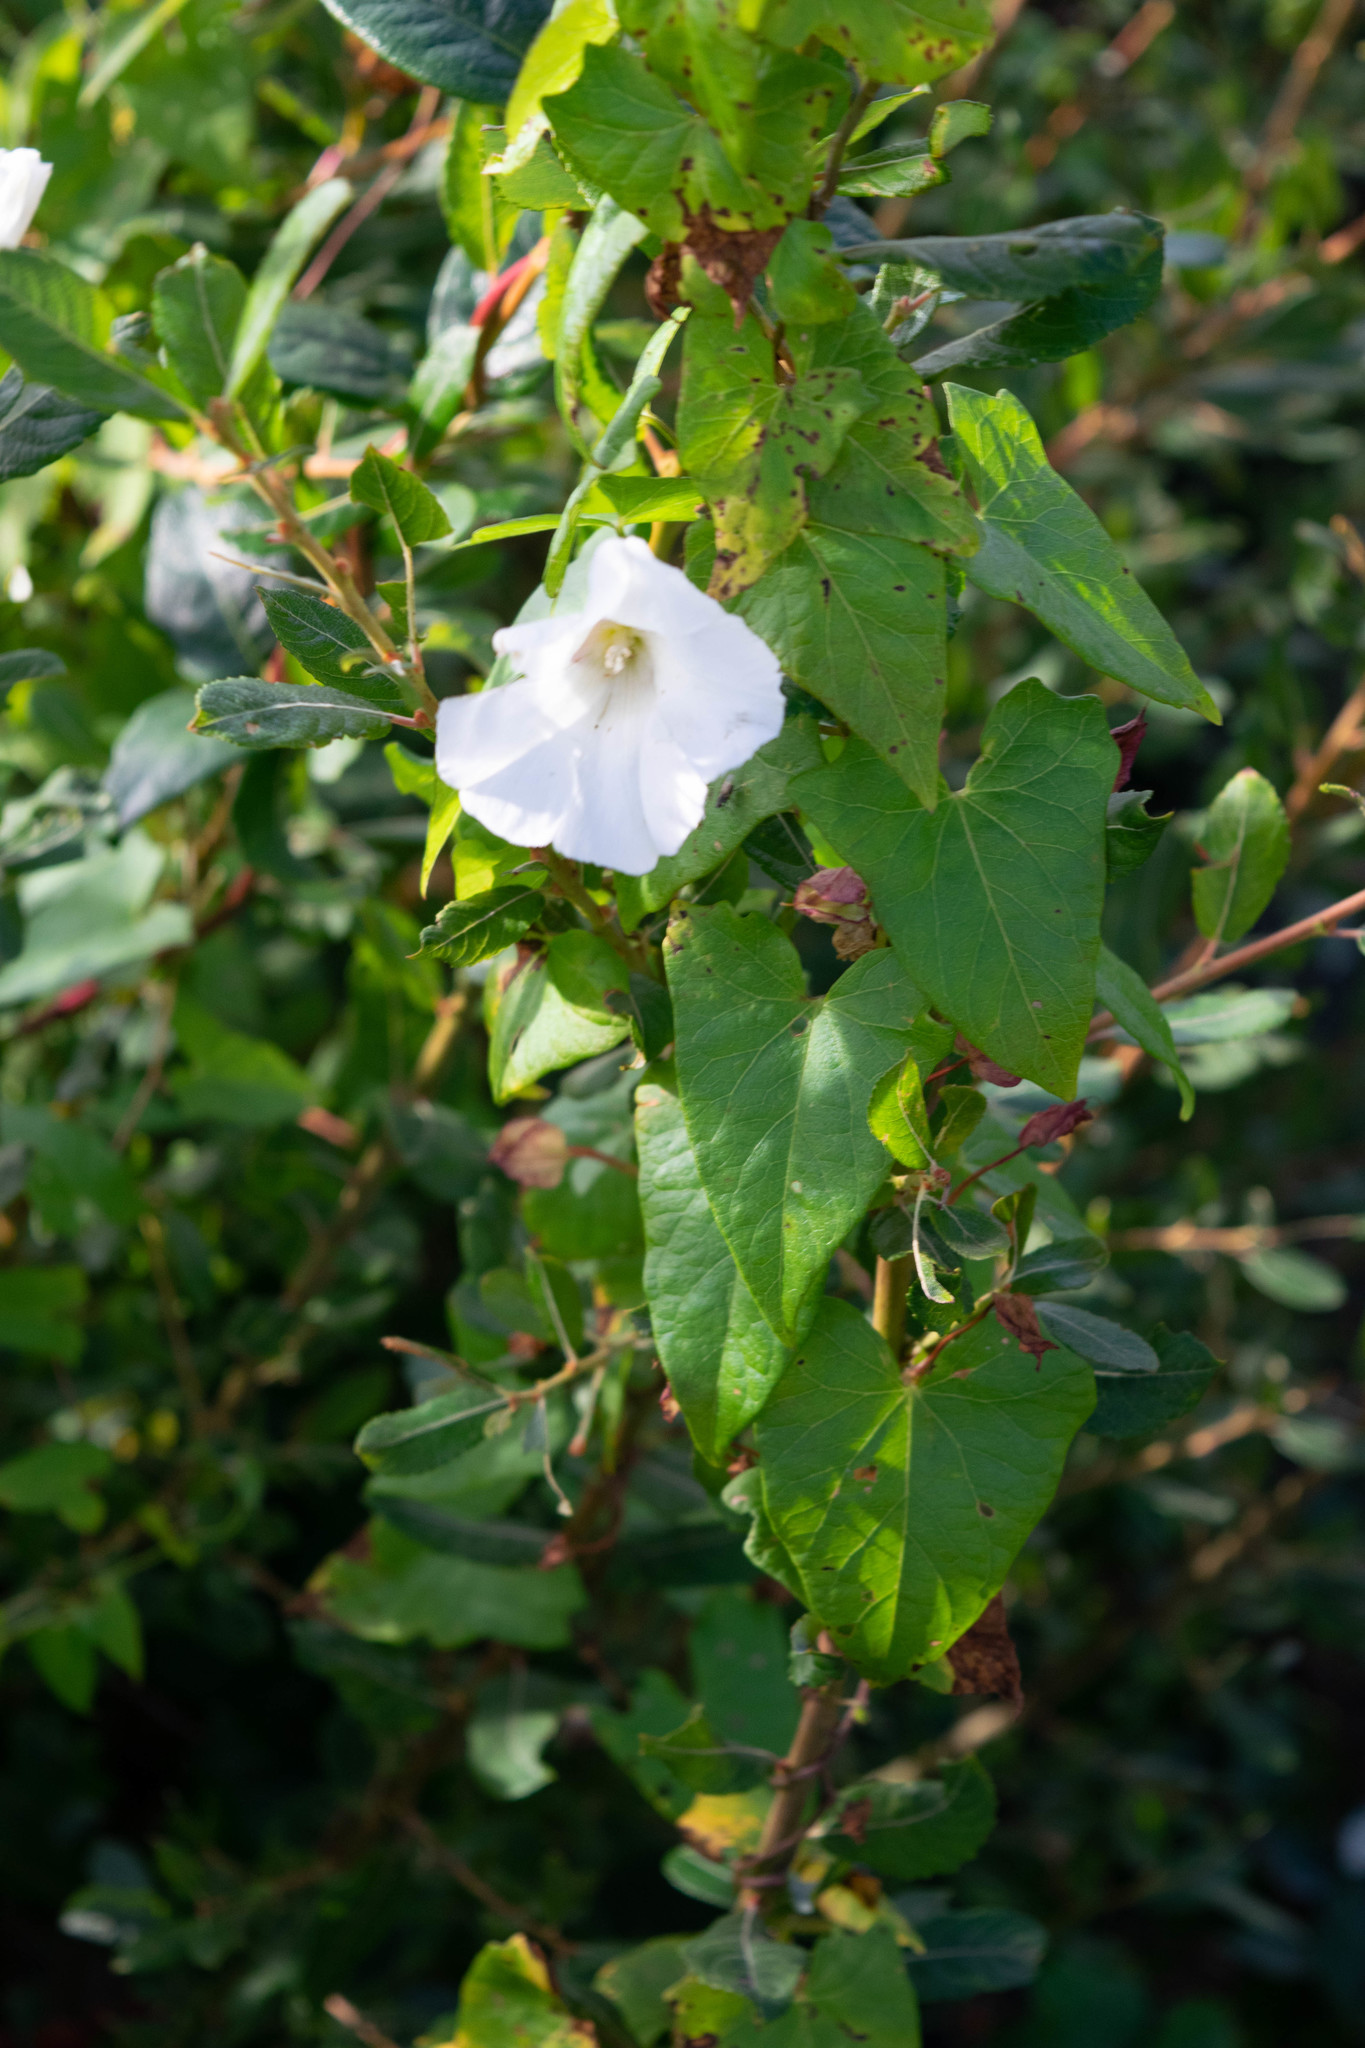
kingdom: Plantae
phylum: Tracheophyta
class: Magnoliopsida
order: Solanales
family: Convolvulaceae
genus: Calystegia
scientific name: Calystegia
